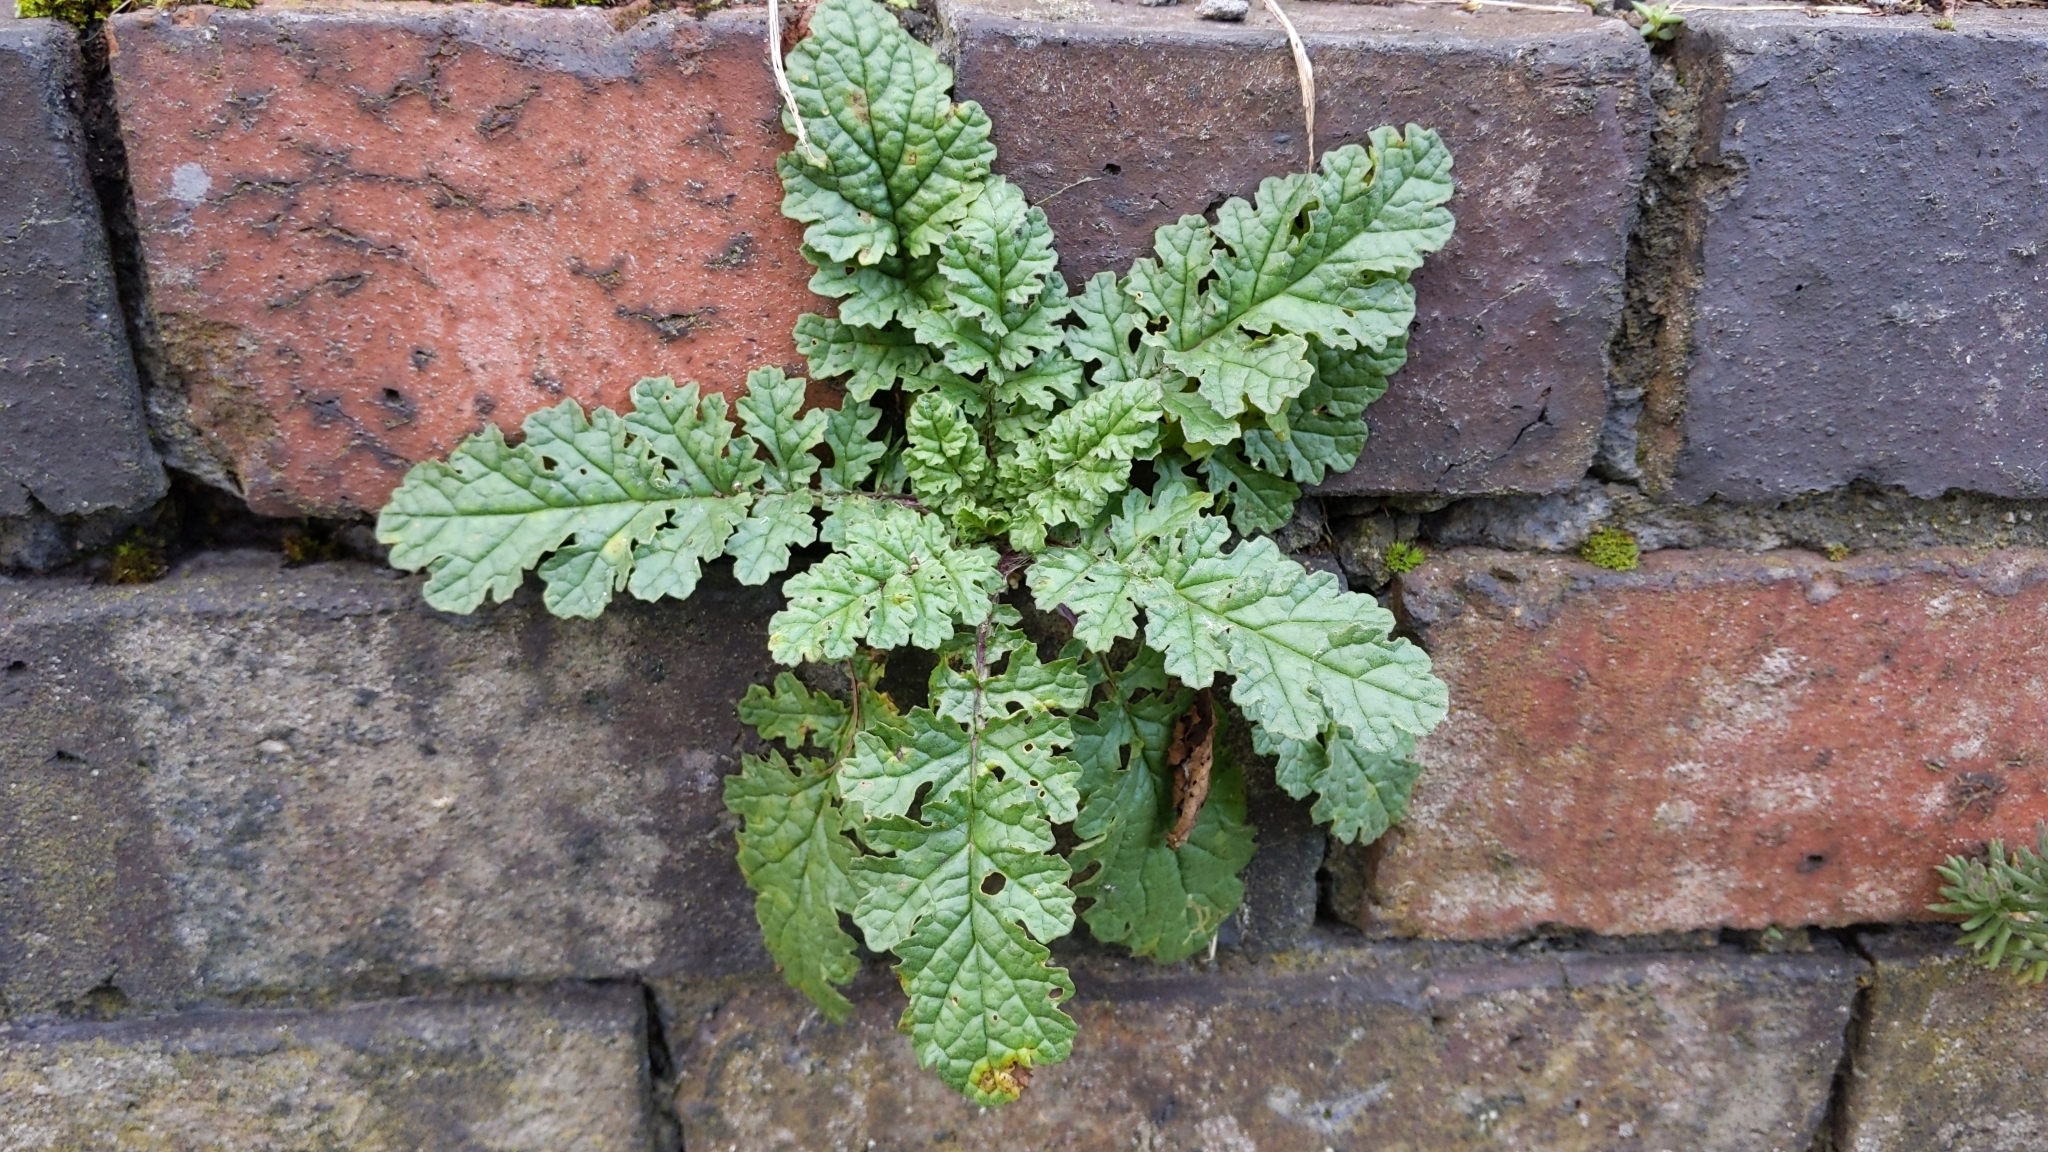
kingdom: Plantae
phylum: Tracheophyta
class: Magnoliopsida
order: Asterales
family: Asteraceae
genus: Jacobaea
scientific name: Jacobaea vulgaris
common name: Stinking willie
